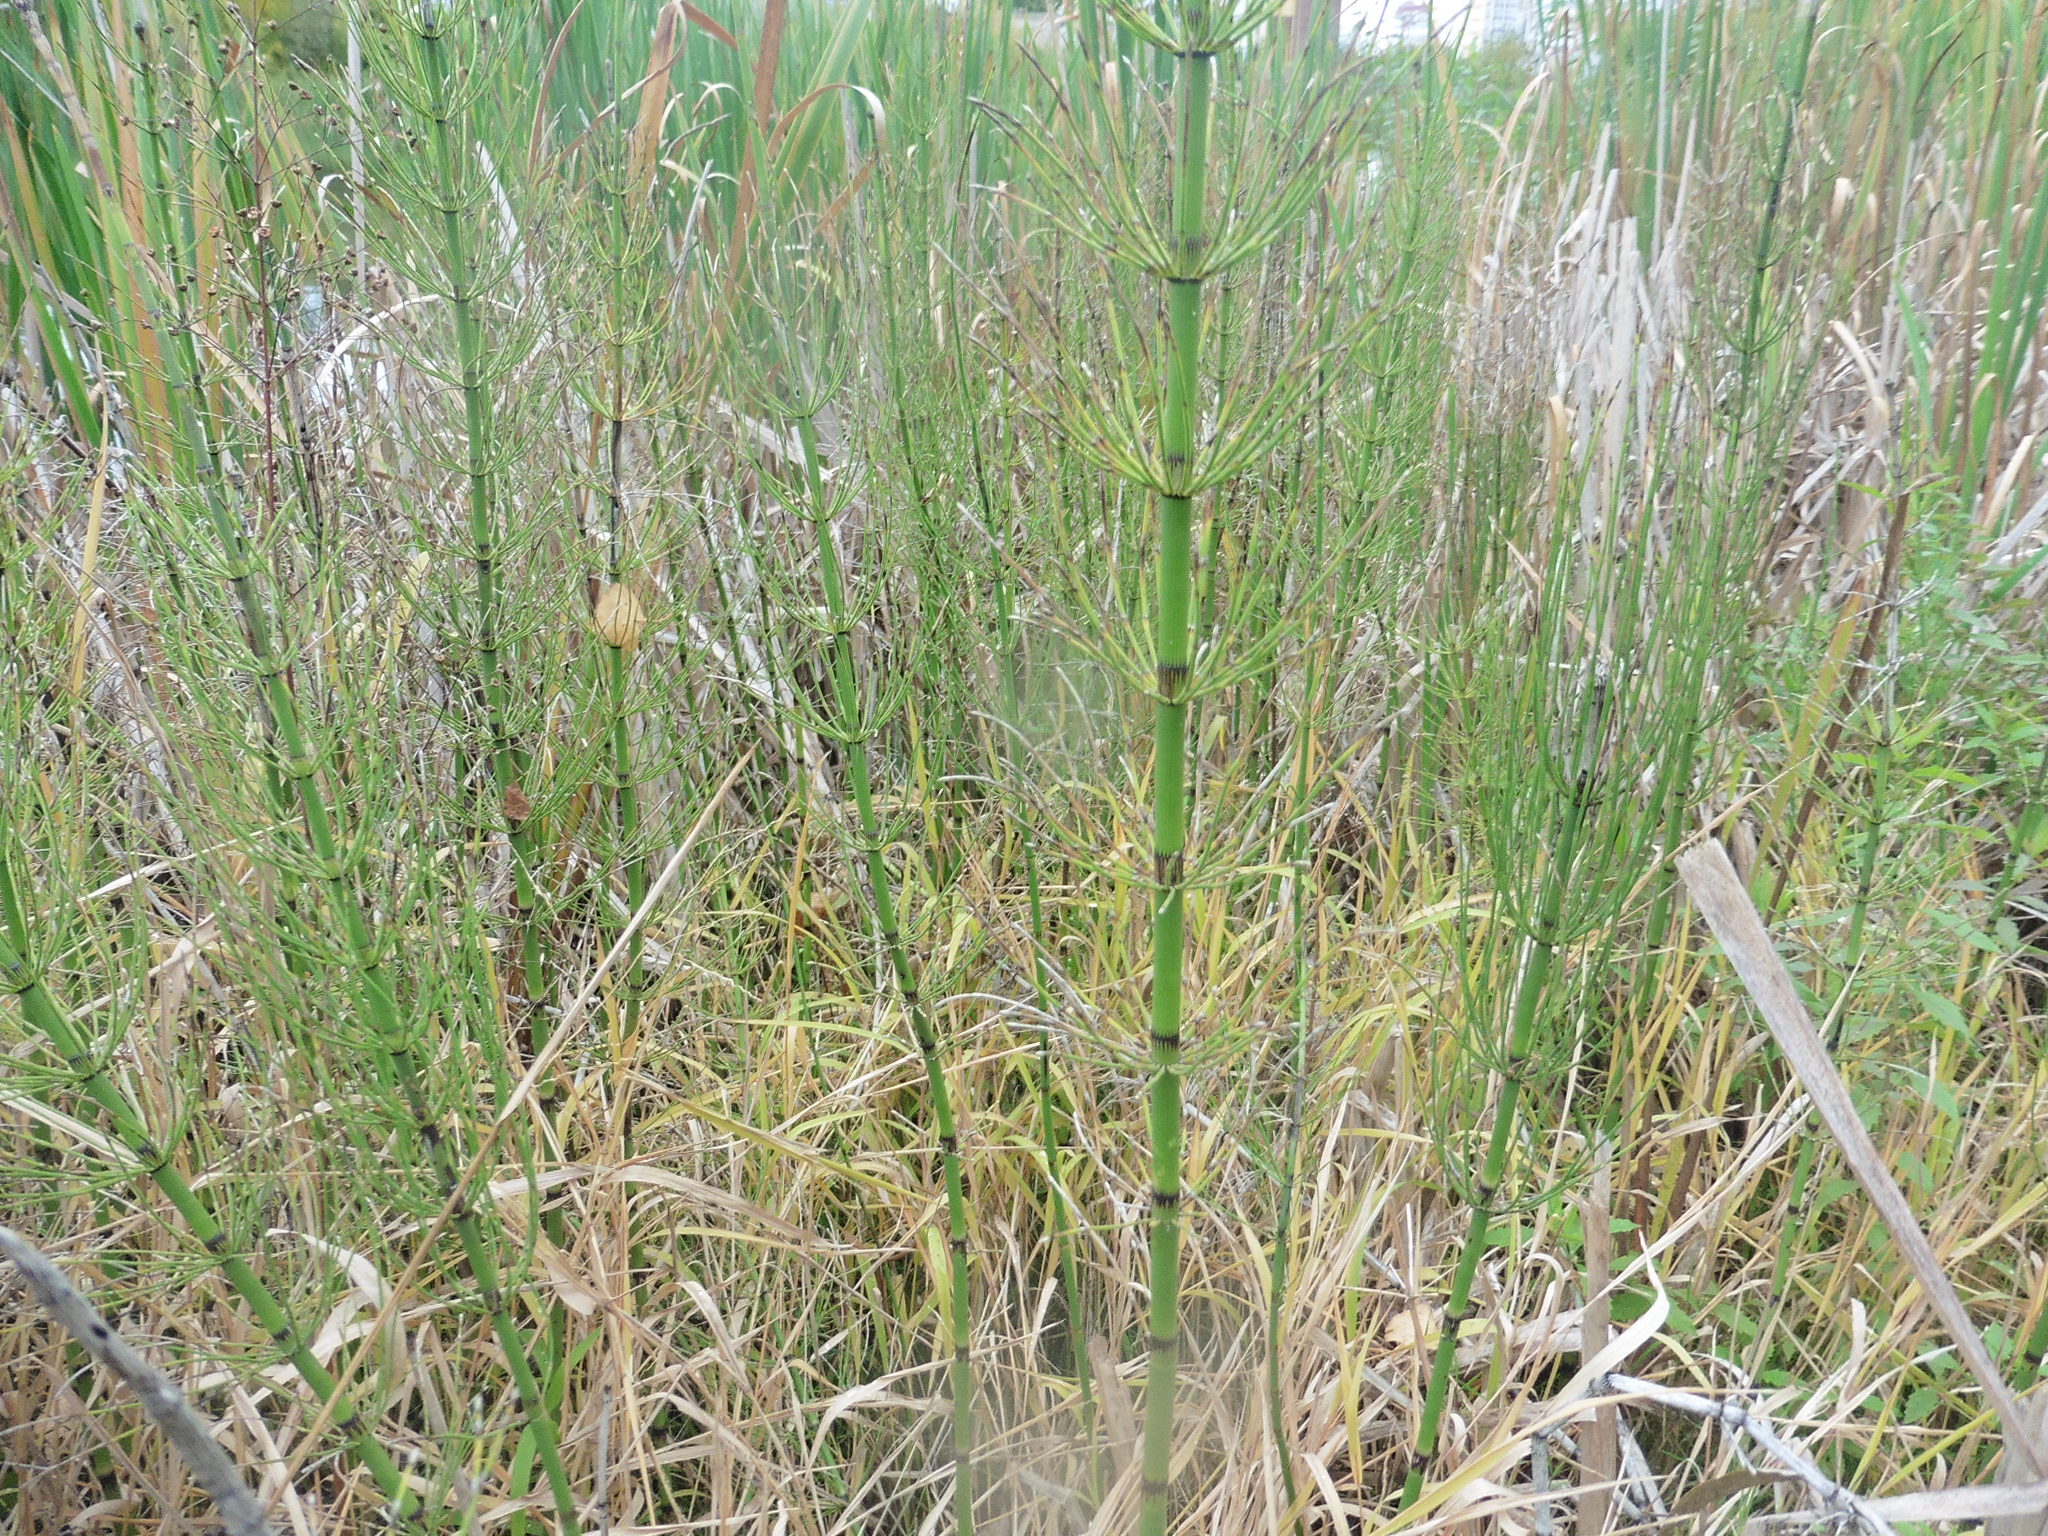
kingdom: Plantae
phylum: Tracheophyta
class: Polypodiopsida
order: Equisetales
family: Equisetaceae
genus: Equisetum
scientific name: Equisetum fluviatile
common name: Water horsetail
